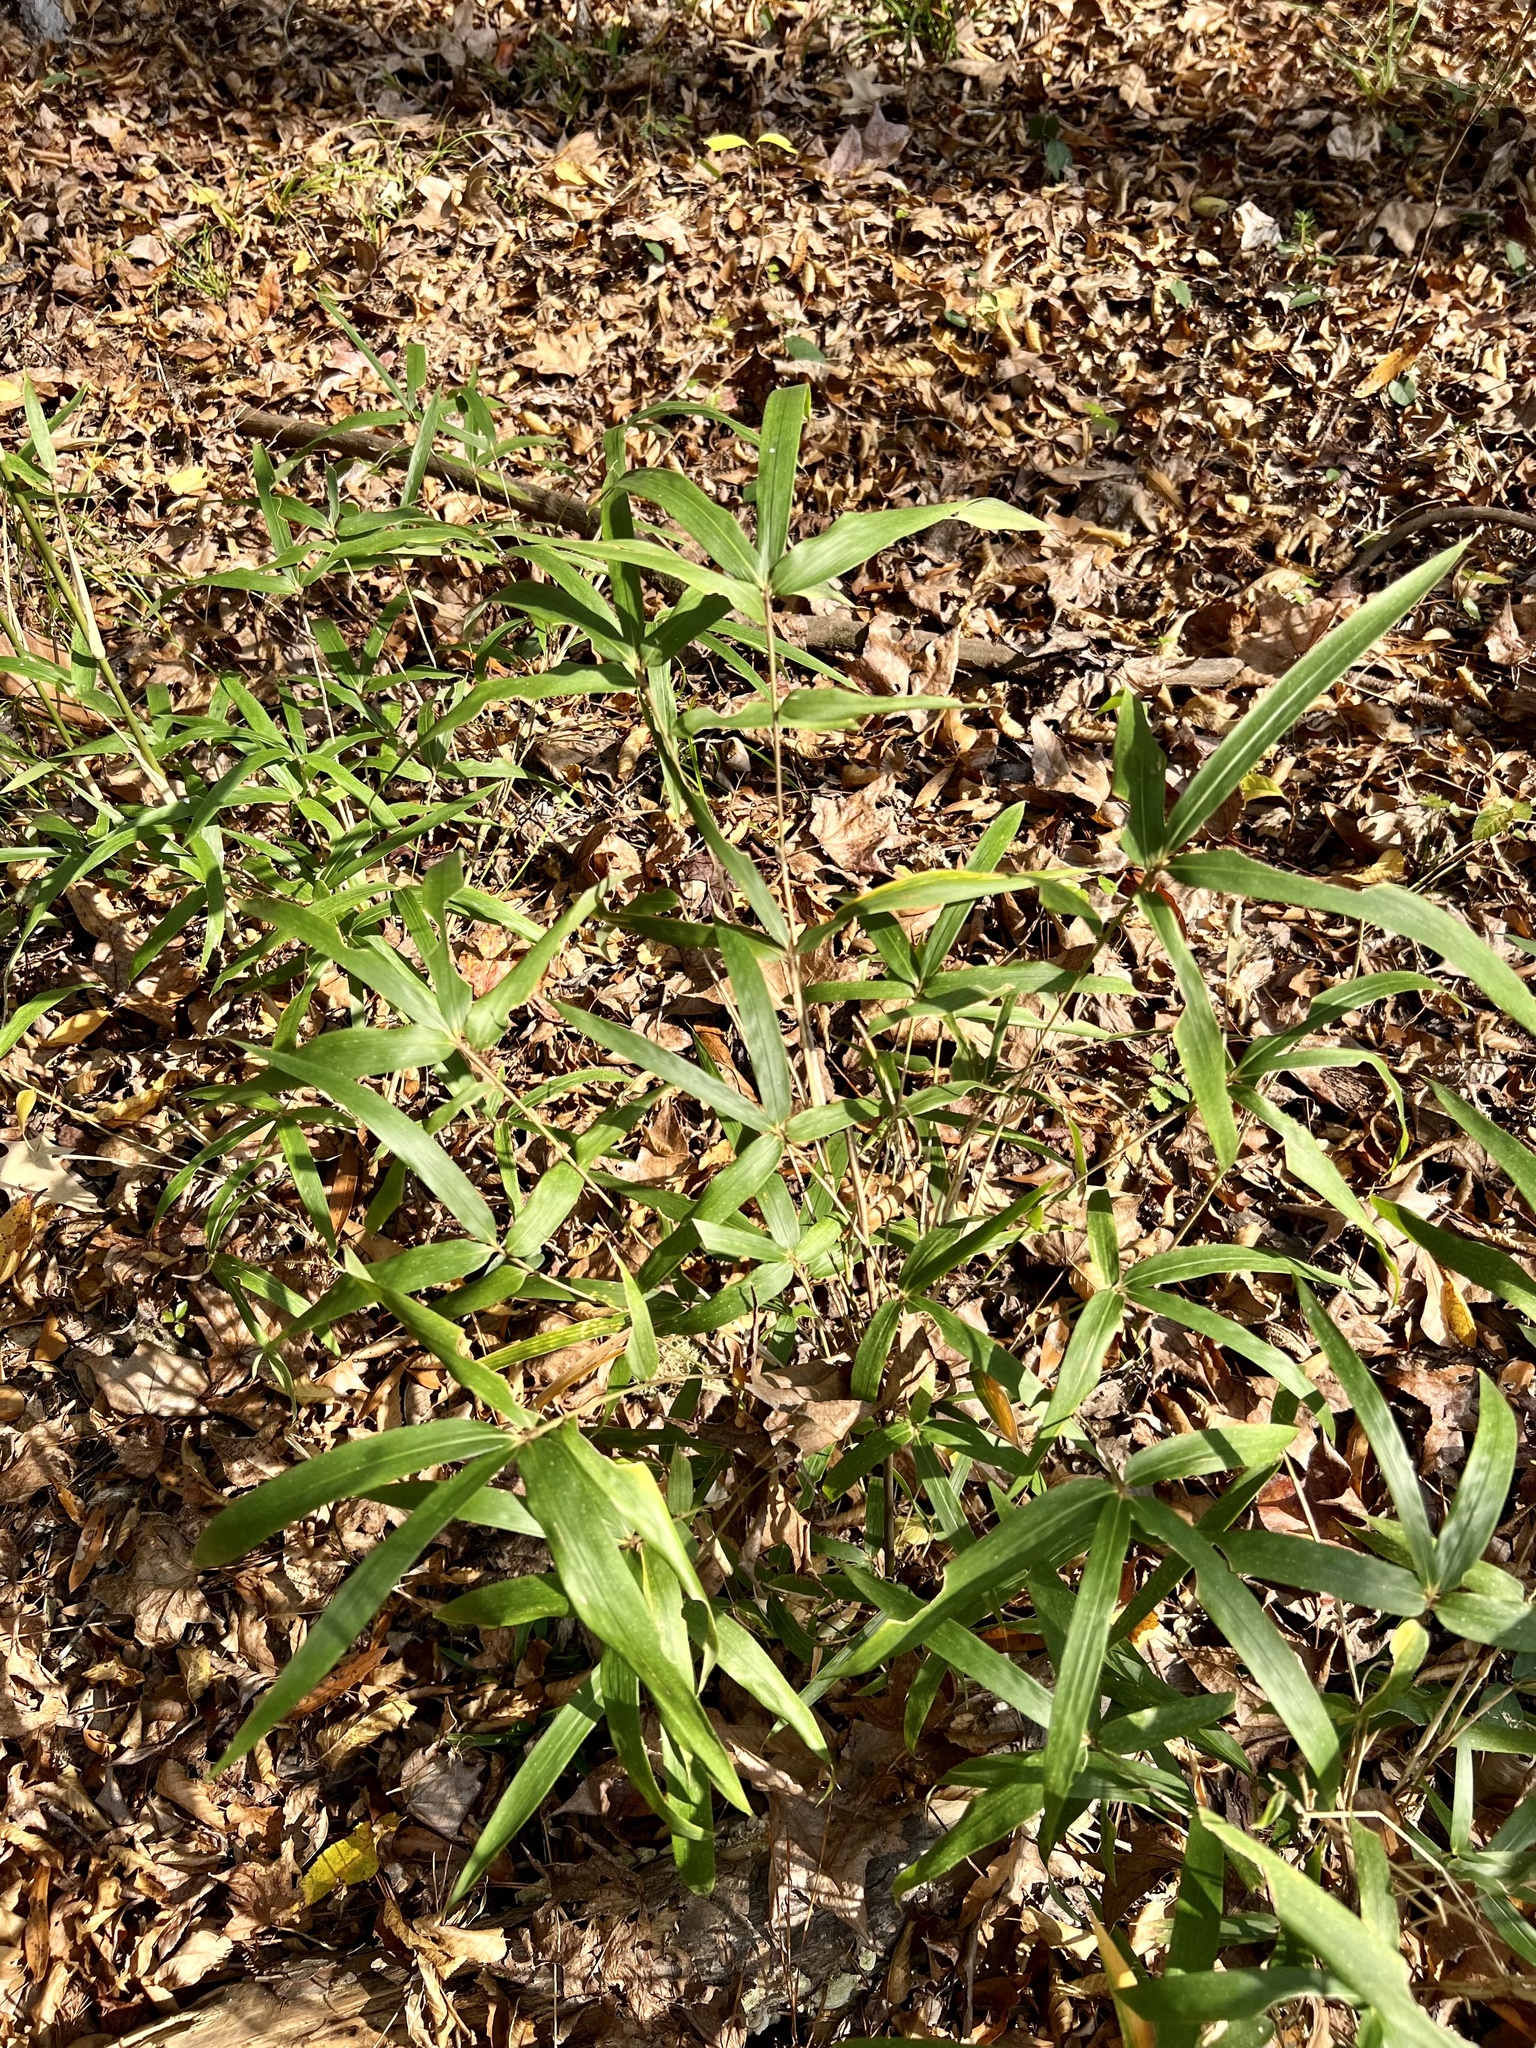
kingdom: Plantae
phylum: Tracheophyta
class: Liliopsida
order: Poales
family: Poaceae
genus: Arundinaria
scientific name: Arundinaria gigantea
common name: Giant cane
